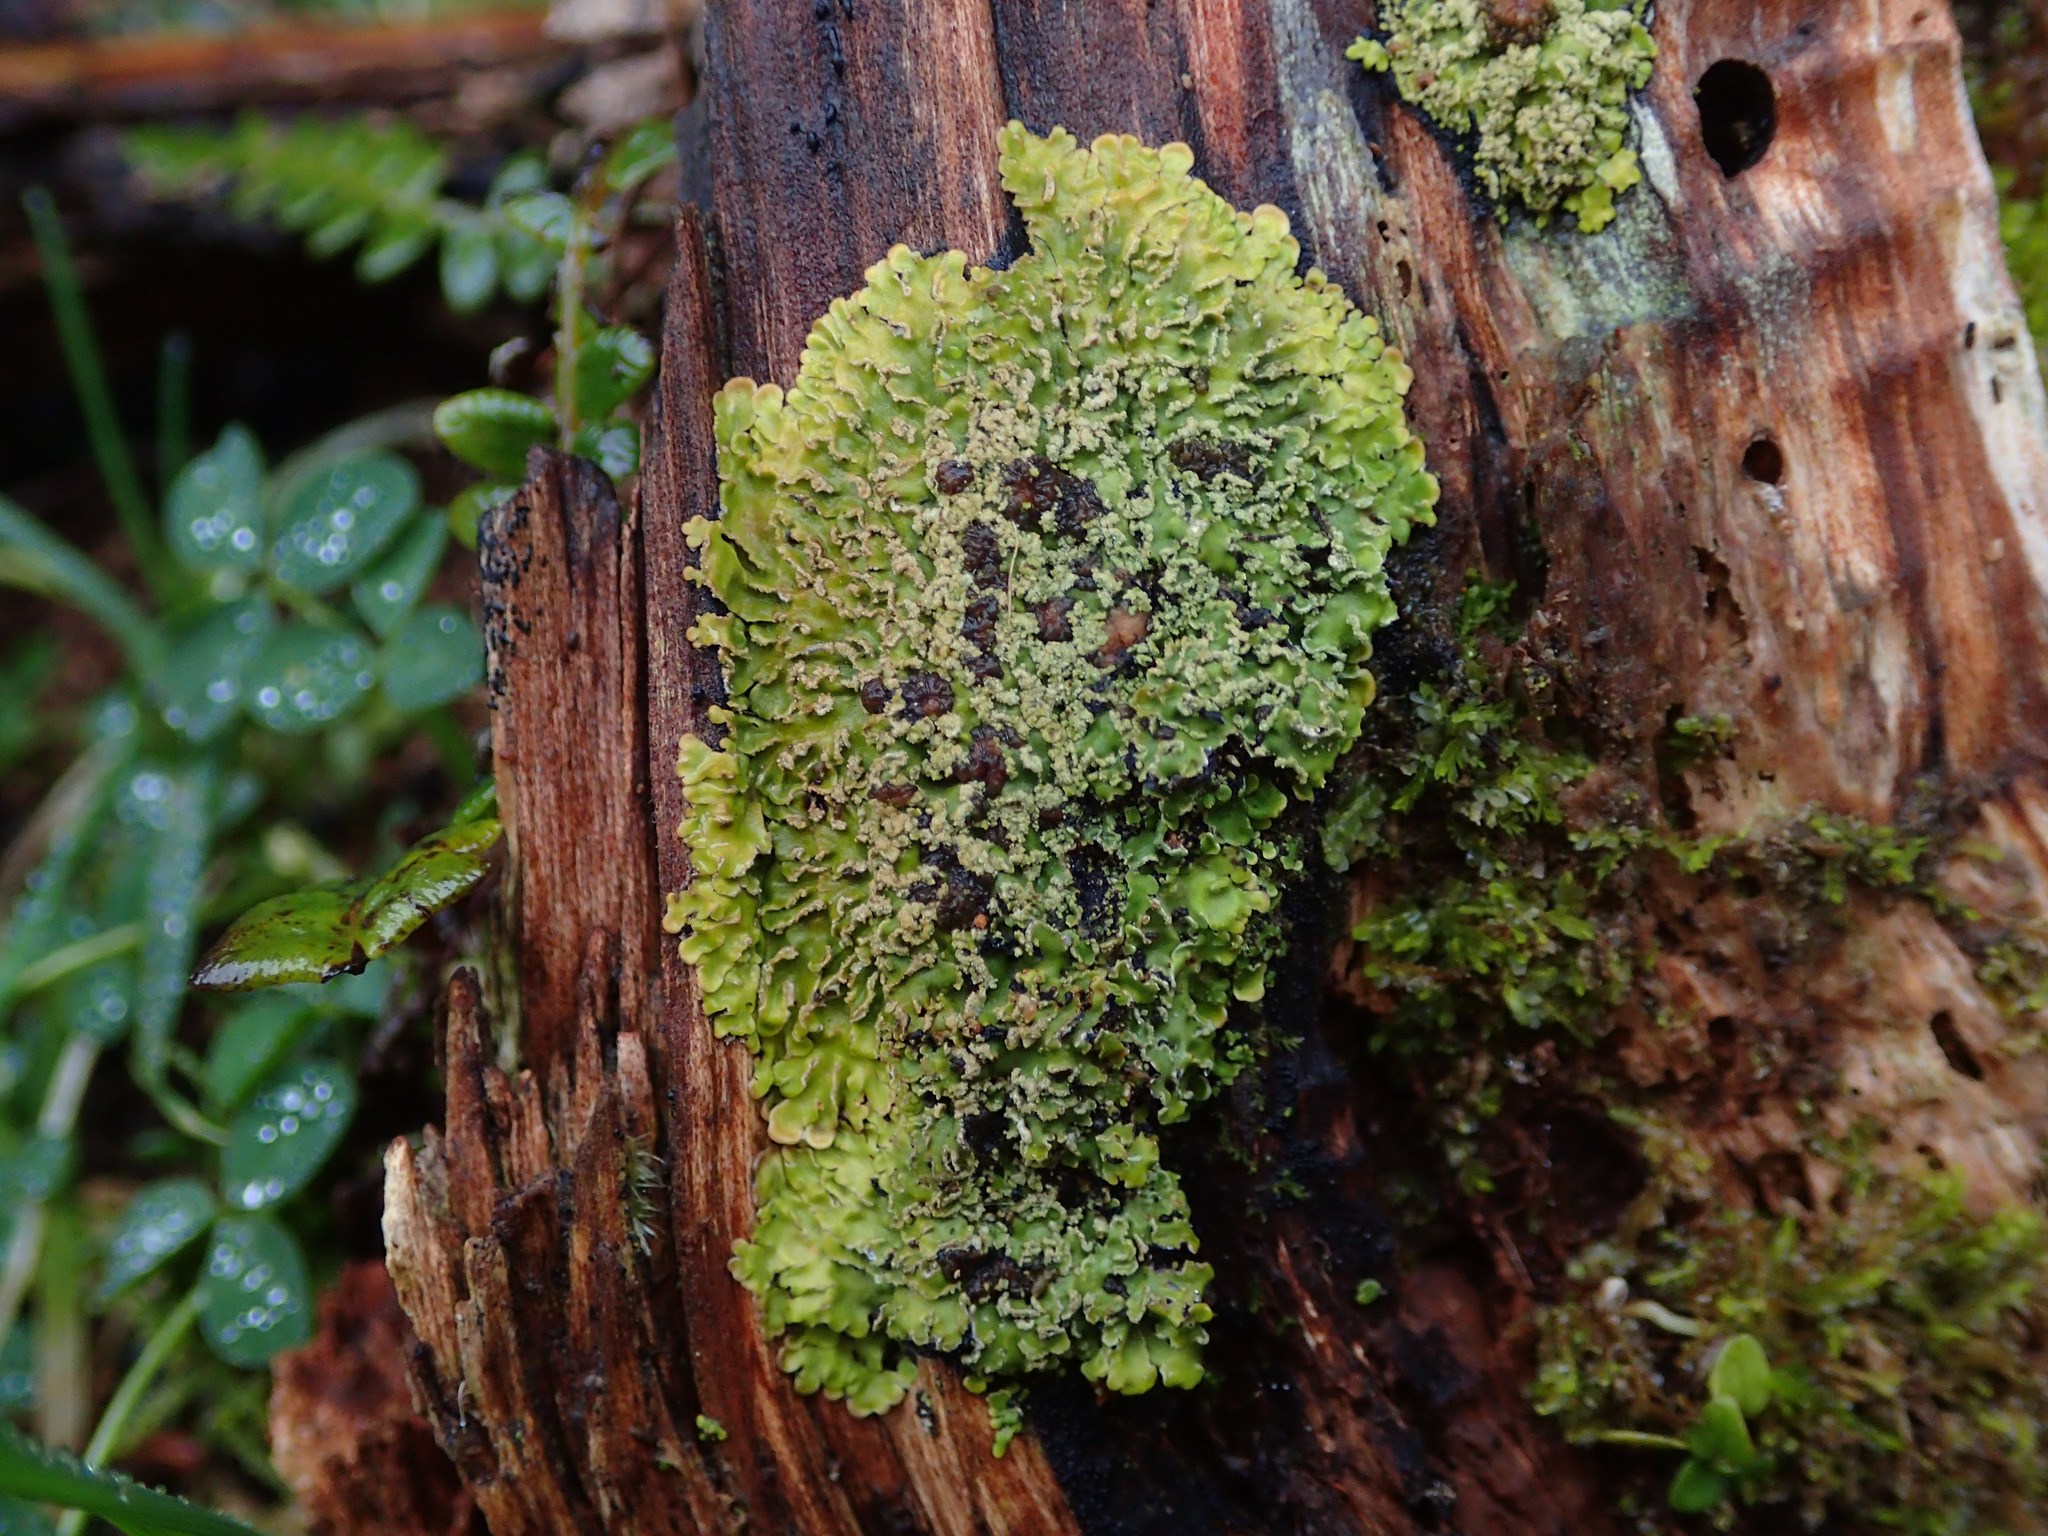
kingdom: Fungi
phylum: Ascomycota
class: Lecanoromycetes
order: Peltigerales
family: Pannariaceae
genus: Pannaria
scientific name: Pannaria leproloma
